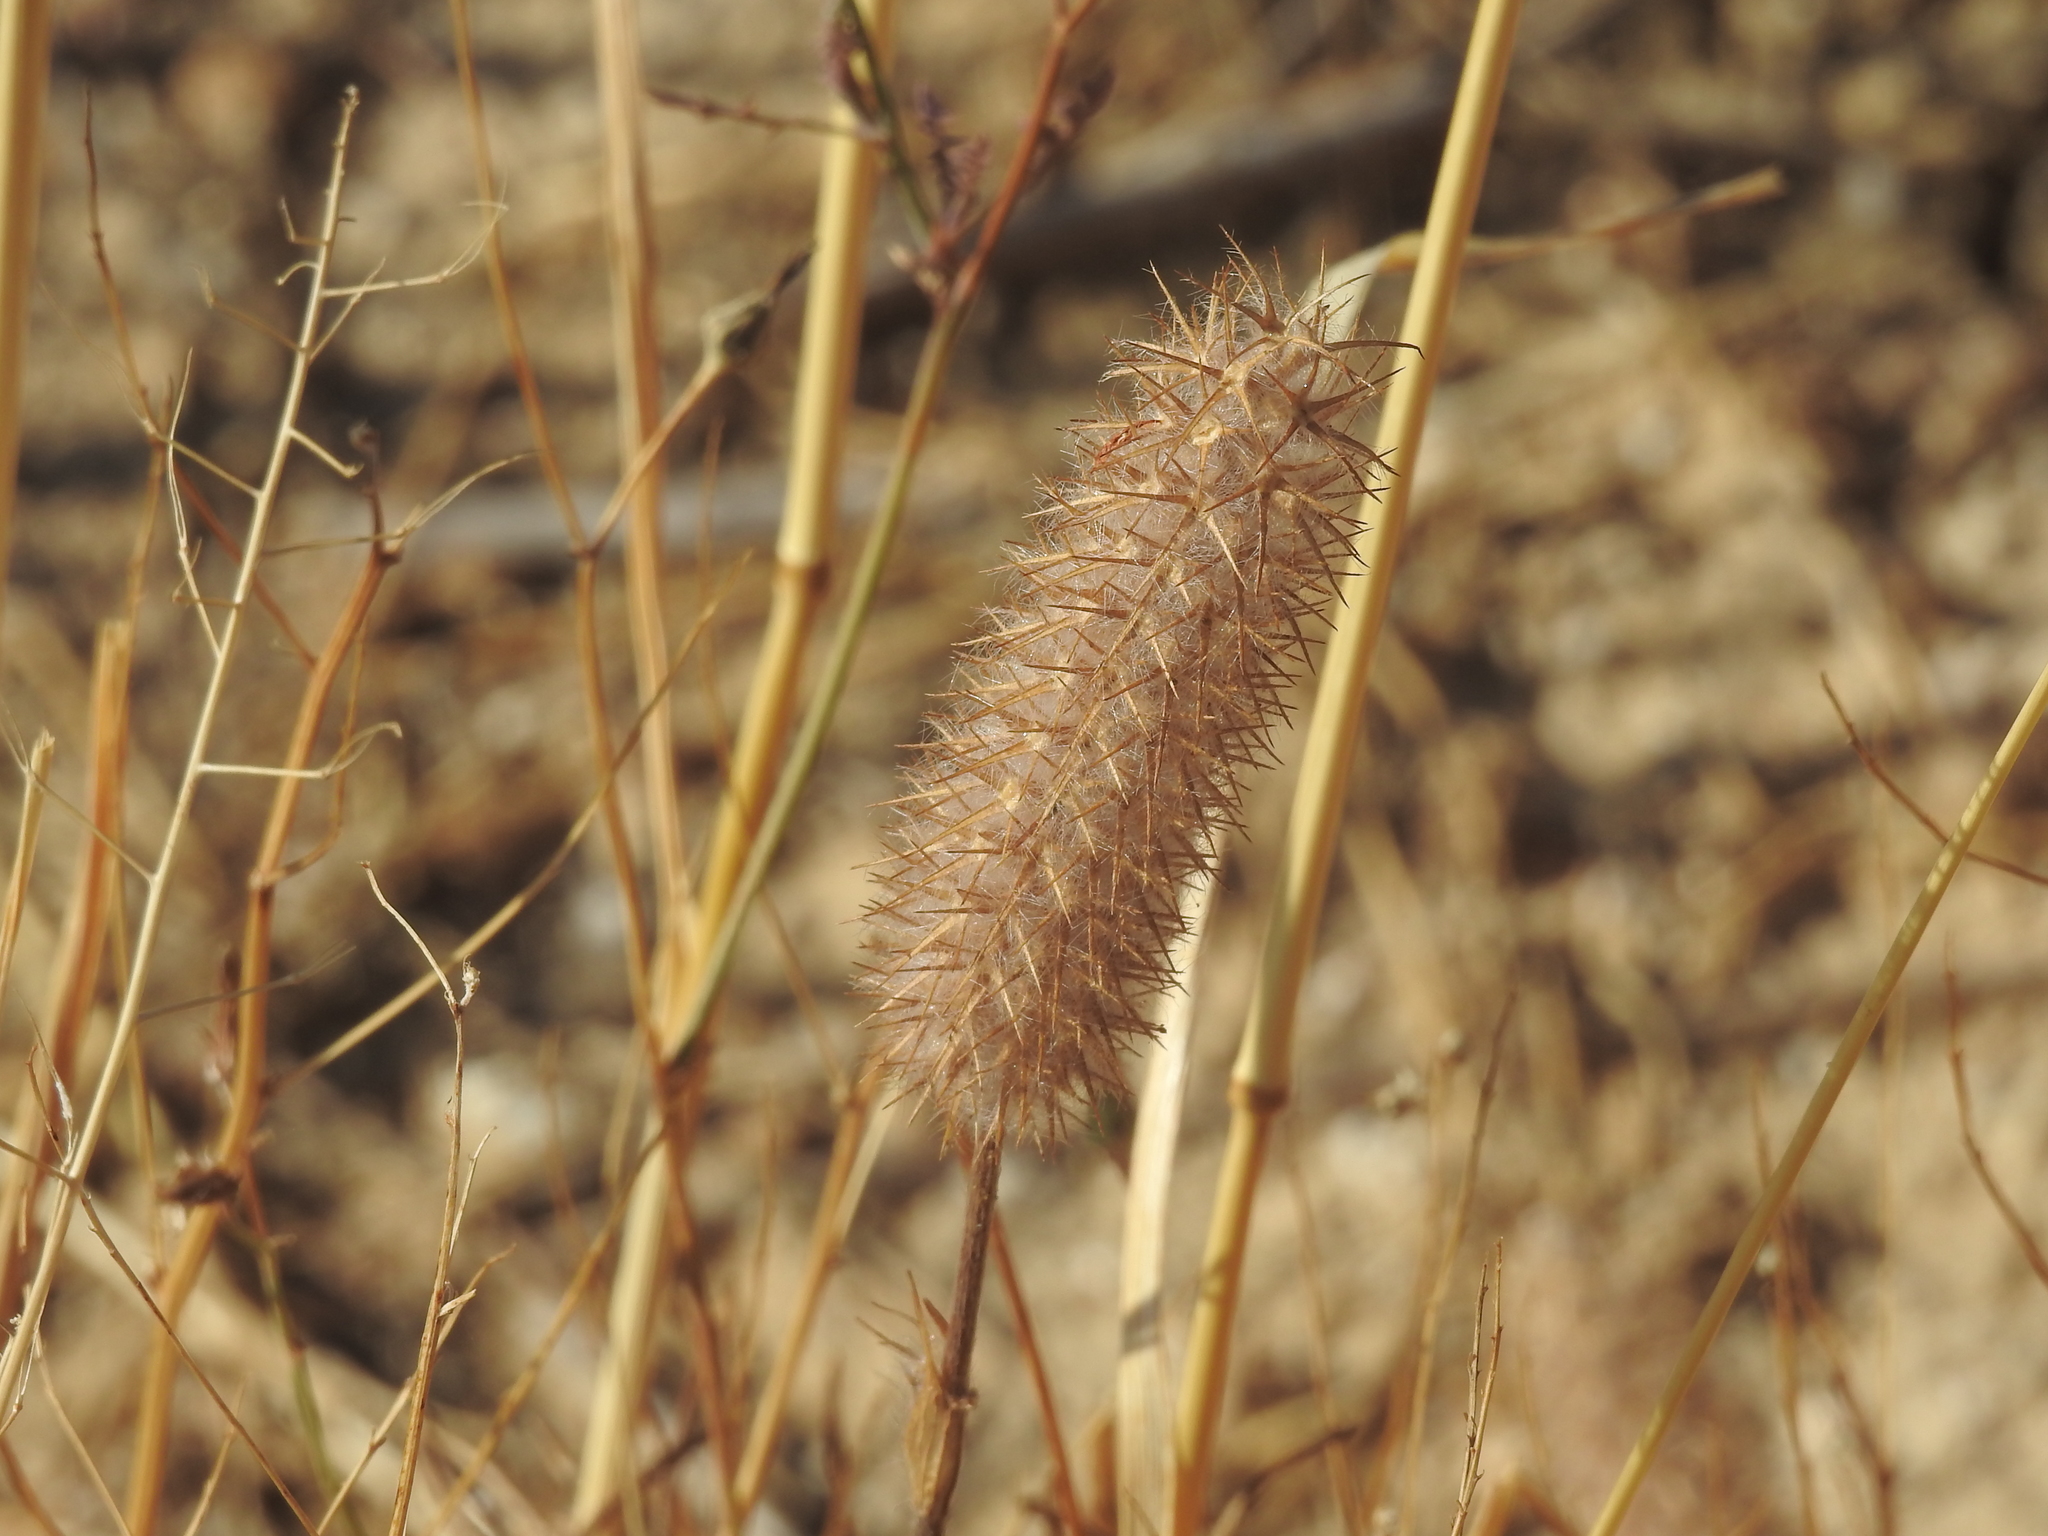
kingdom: Plantae
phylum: Tracheophyta
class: Magnoliopsida
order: Fabales
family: Fabaceae
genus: Trifolium
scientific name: Trifolium angustifolium
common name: Narrow clover
